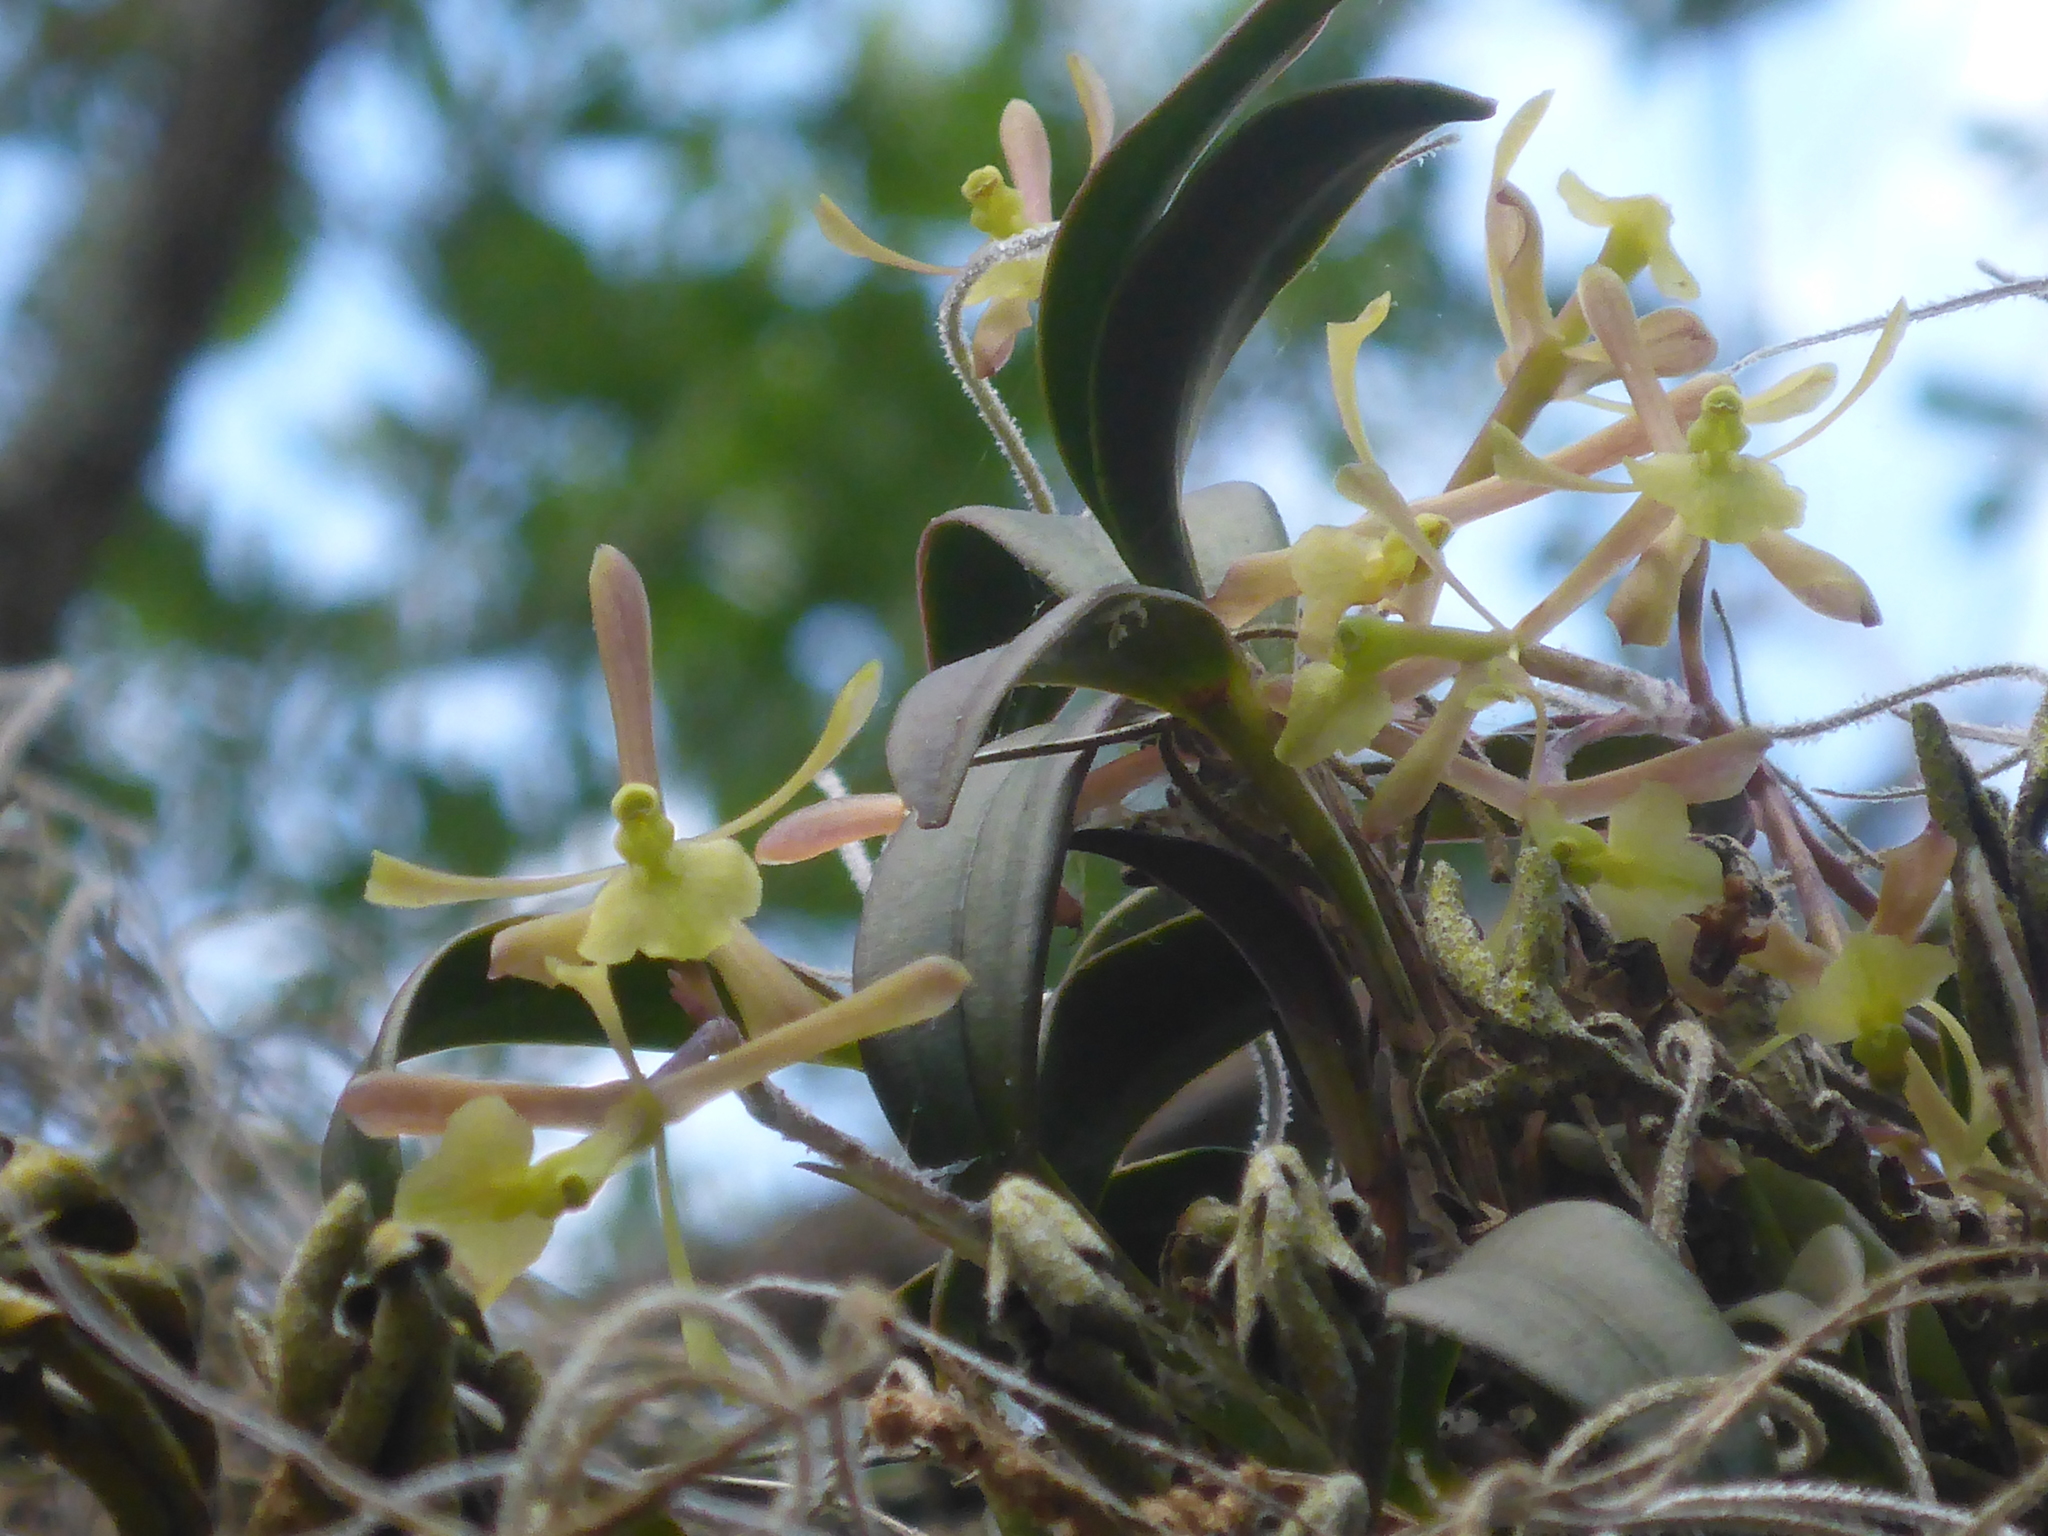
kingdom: Plantae
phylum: Tracheophyta
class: Liliopsida
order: Asparagales
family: Orchidaceae
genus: Epidendrum
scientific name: Epidendrum conopseum
